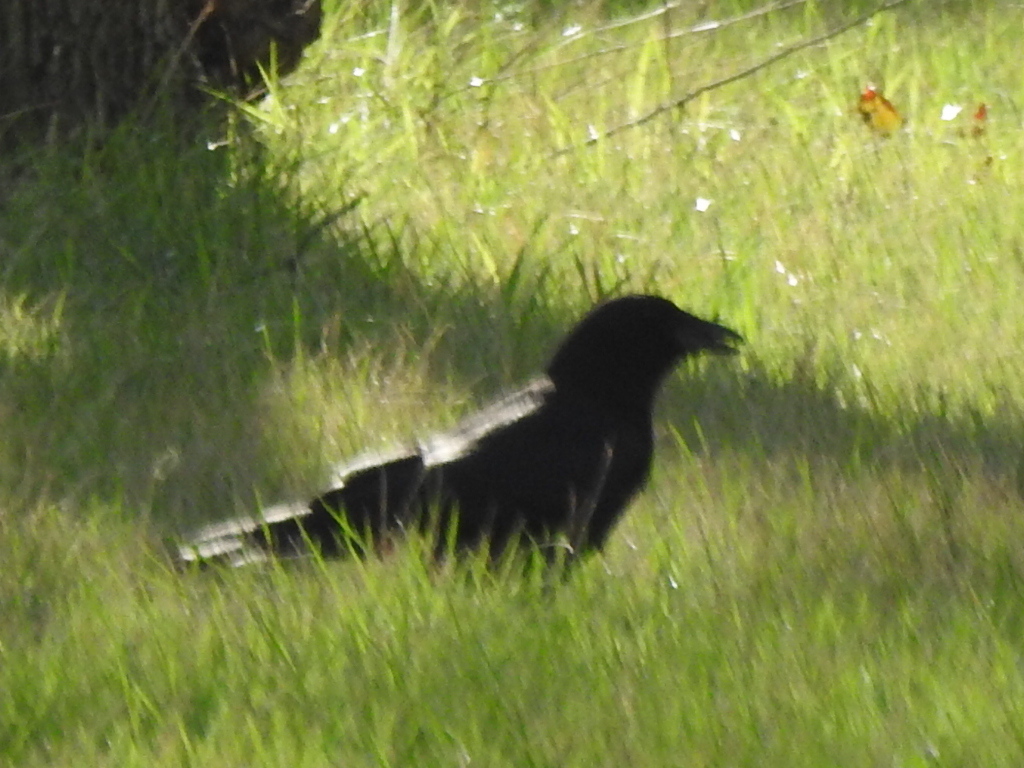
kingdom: Animalia
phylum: Chordata
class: Aves
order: Passeriformes
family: Corvidae
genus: Corvus
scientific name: Corvus brachyrhynchos
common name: American crow
